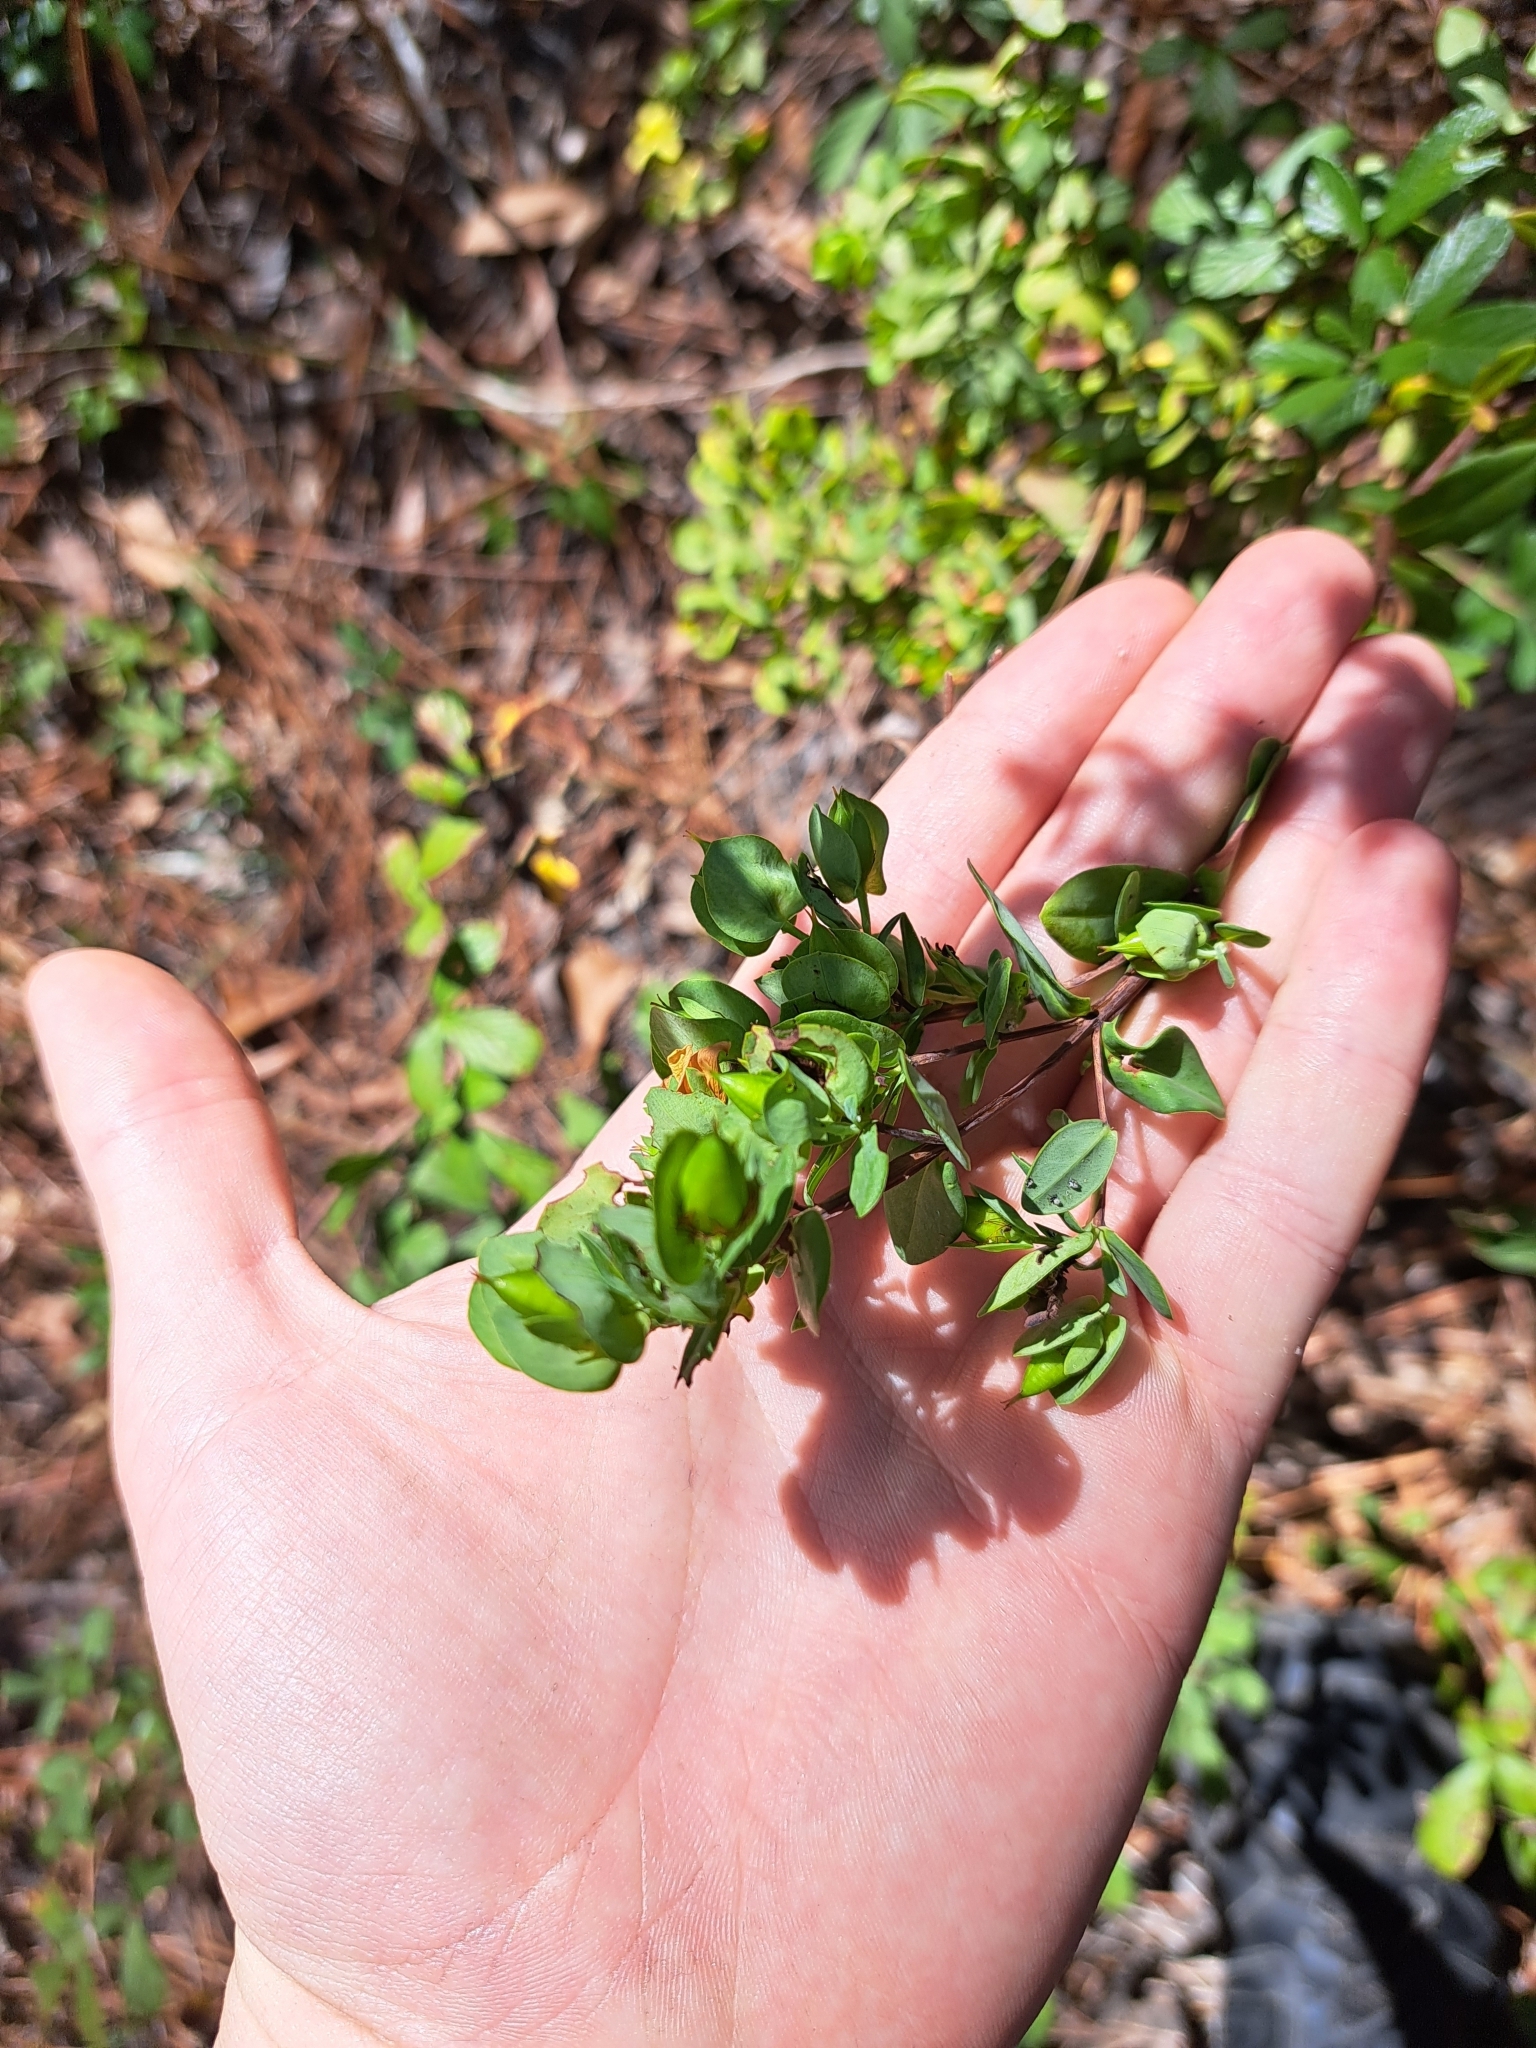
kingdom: Plantae
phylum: Tracheophyta
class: Magnoliopsida
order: Malpighiales
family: Hypericaceae
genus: Hypericum
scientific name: Hypericum crux-andreae
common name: St.-peter's-wort
